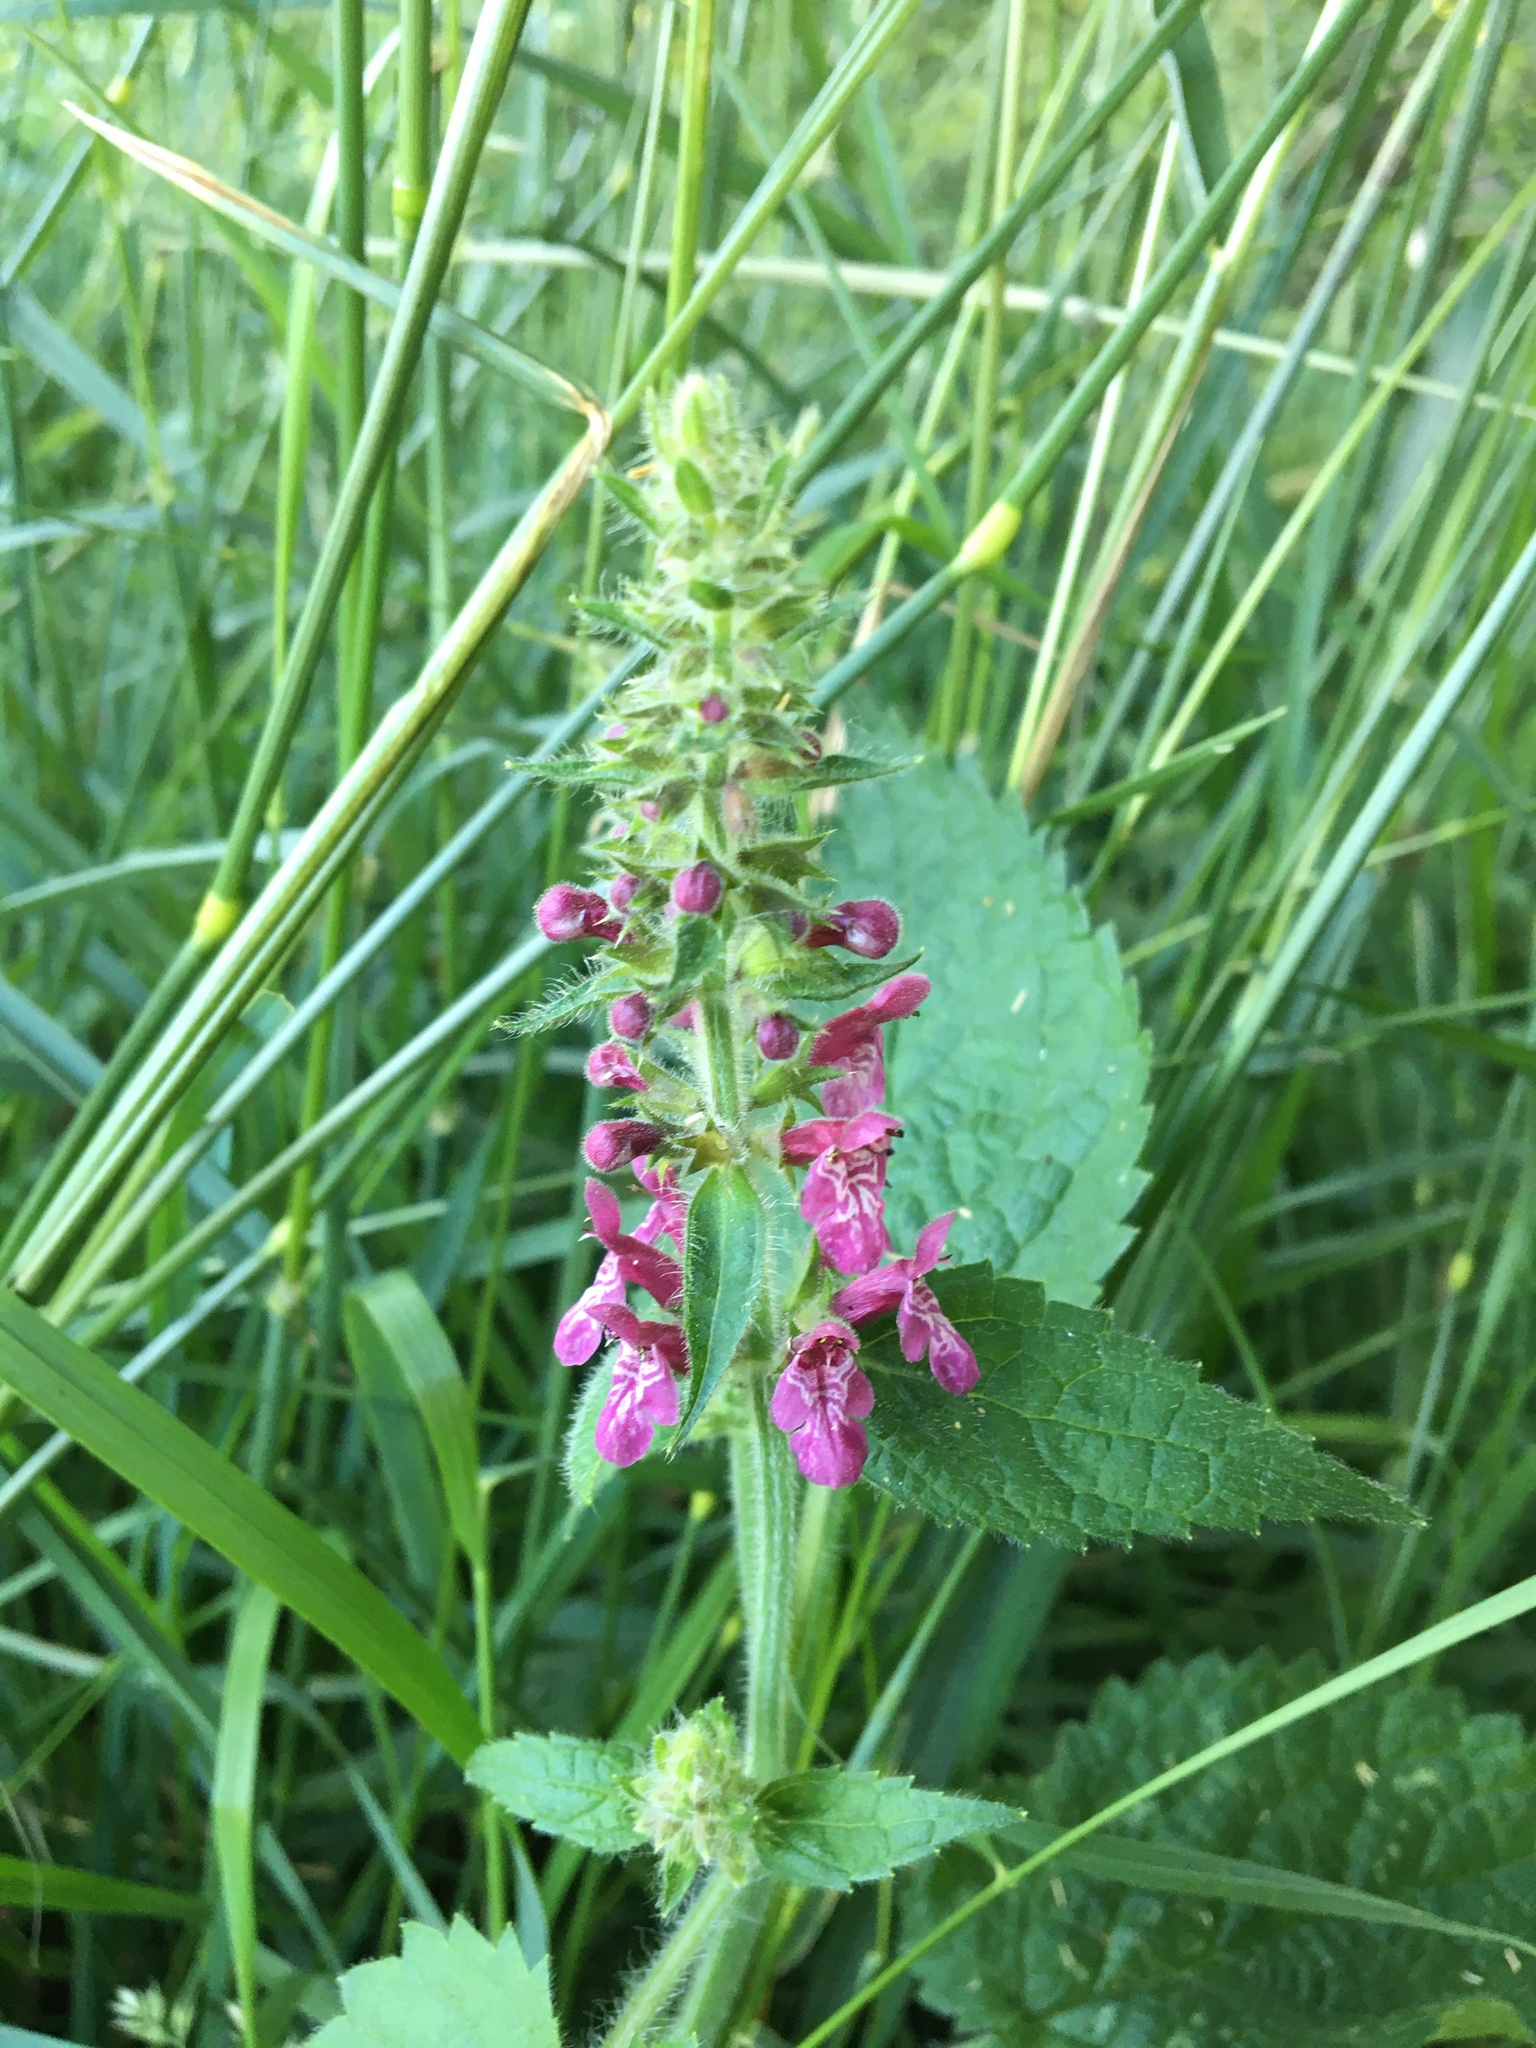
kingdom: Plantae
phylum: Tracheophyta
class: Magnoliopsida
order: Lamiales
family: Lamiaceae
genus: Stachys
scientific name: Stachys sylvatica
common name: Hedge woundwort
